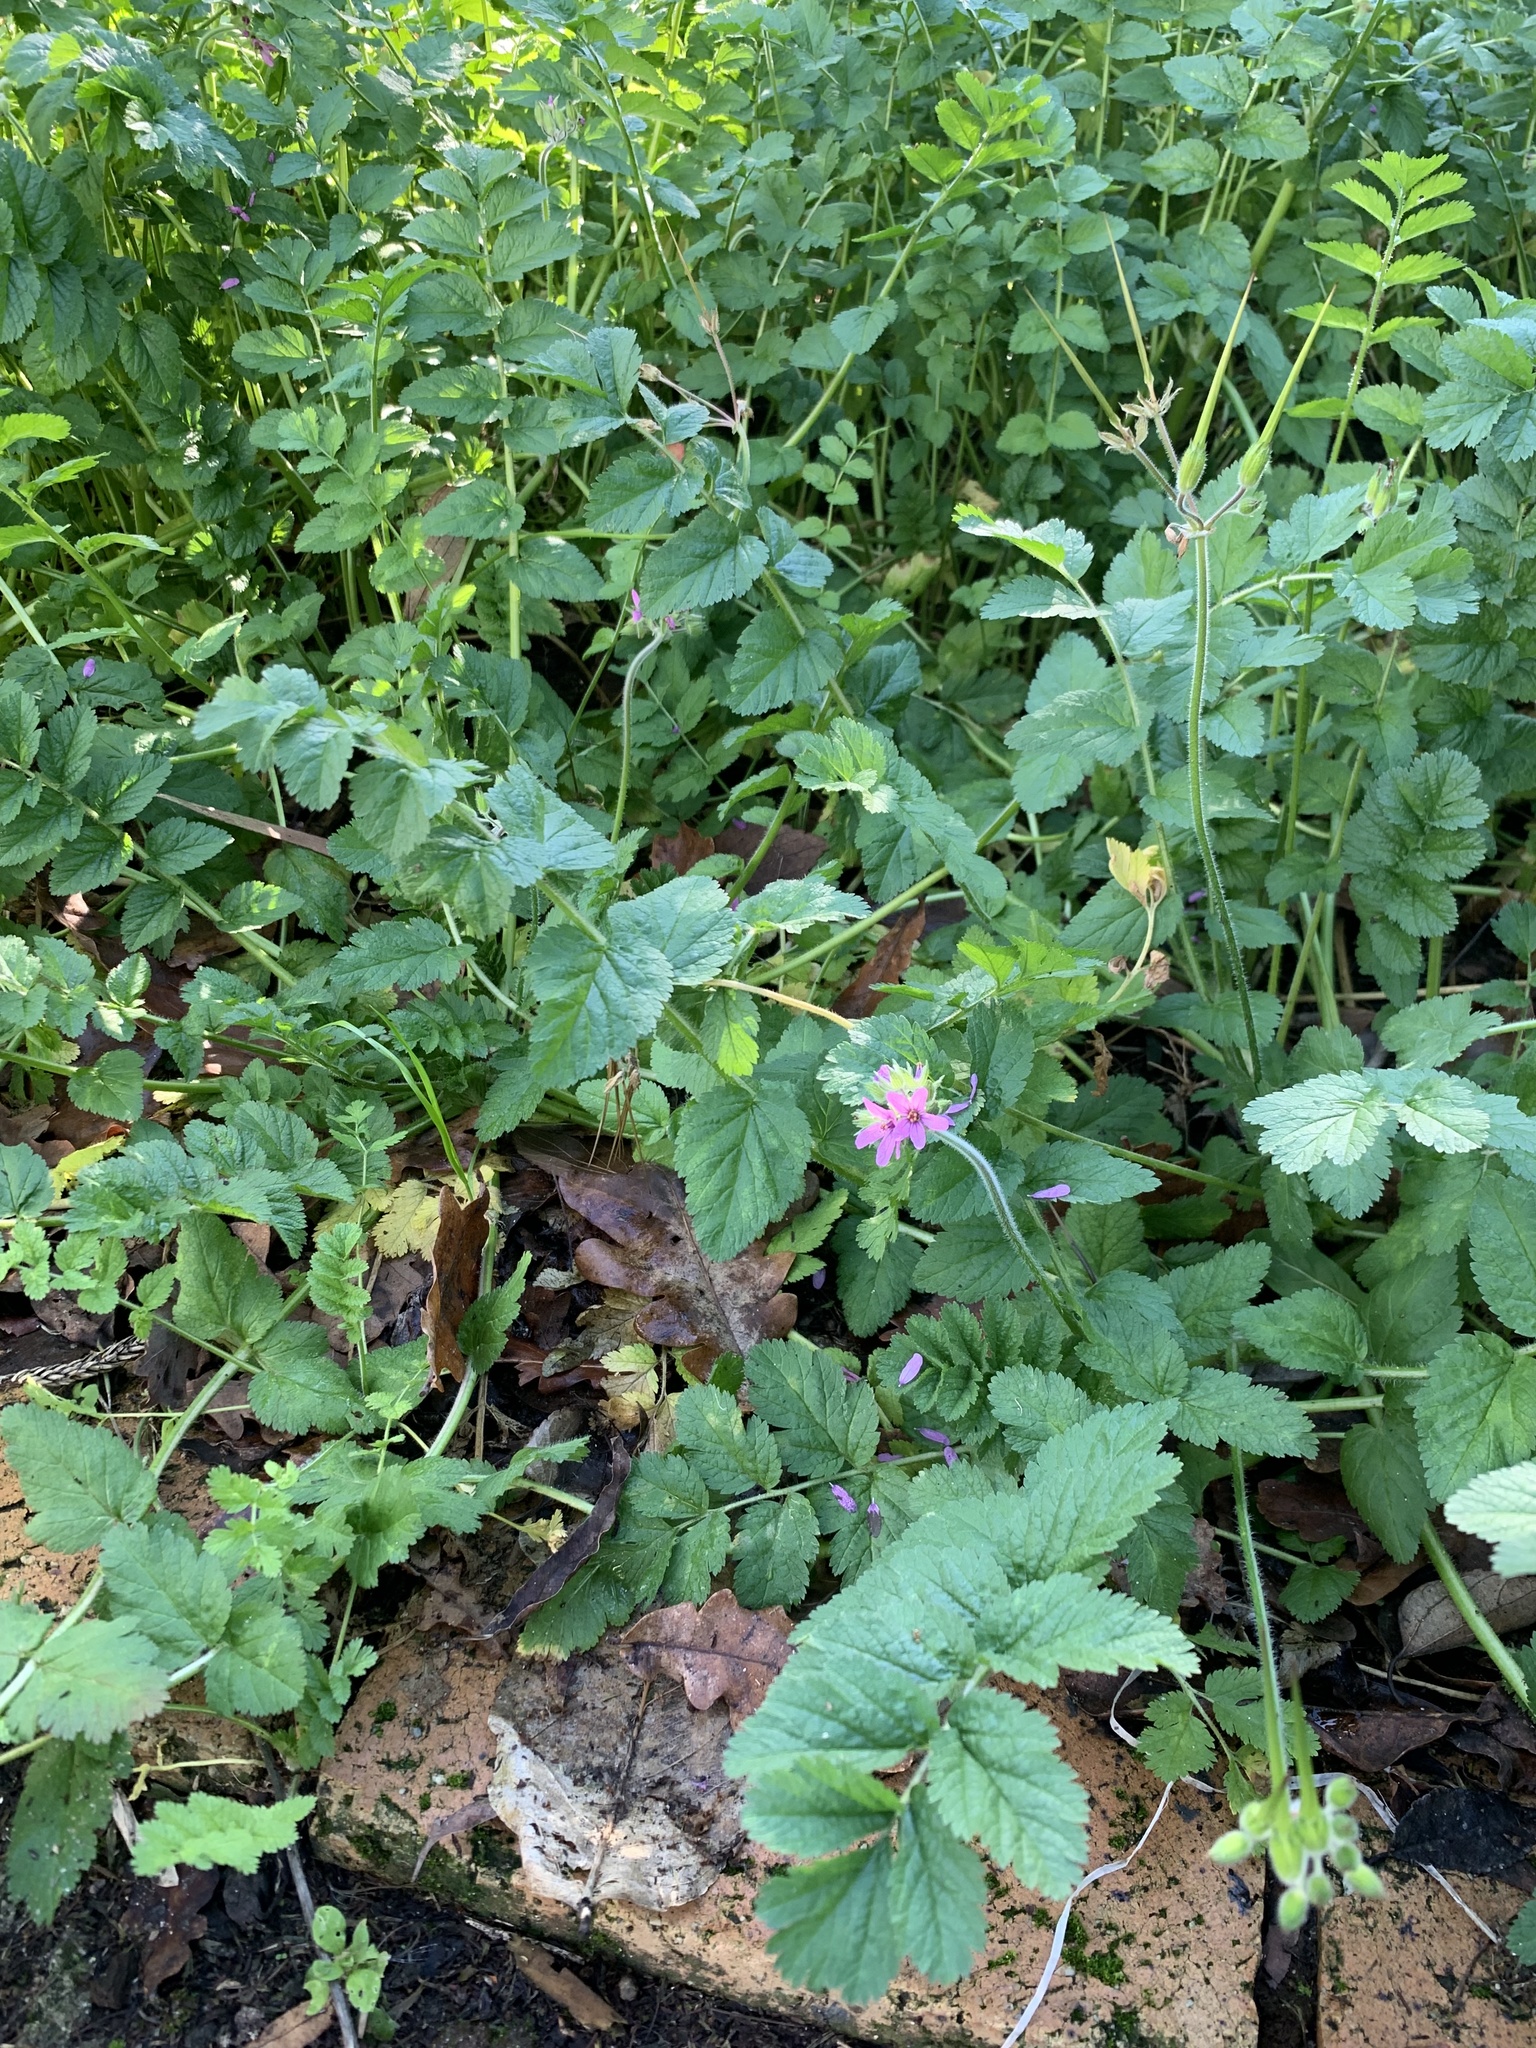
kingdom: Plantae
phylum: Tracheophyta
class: Magnoliopsida
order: Geraniales
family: Geraniaceae
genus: Erodium
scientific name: Erodium moschatum
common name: Musk stork's-bill
